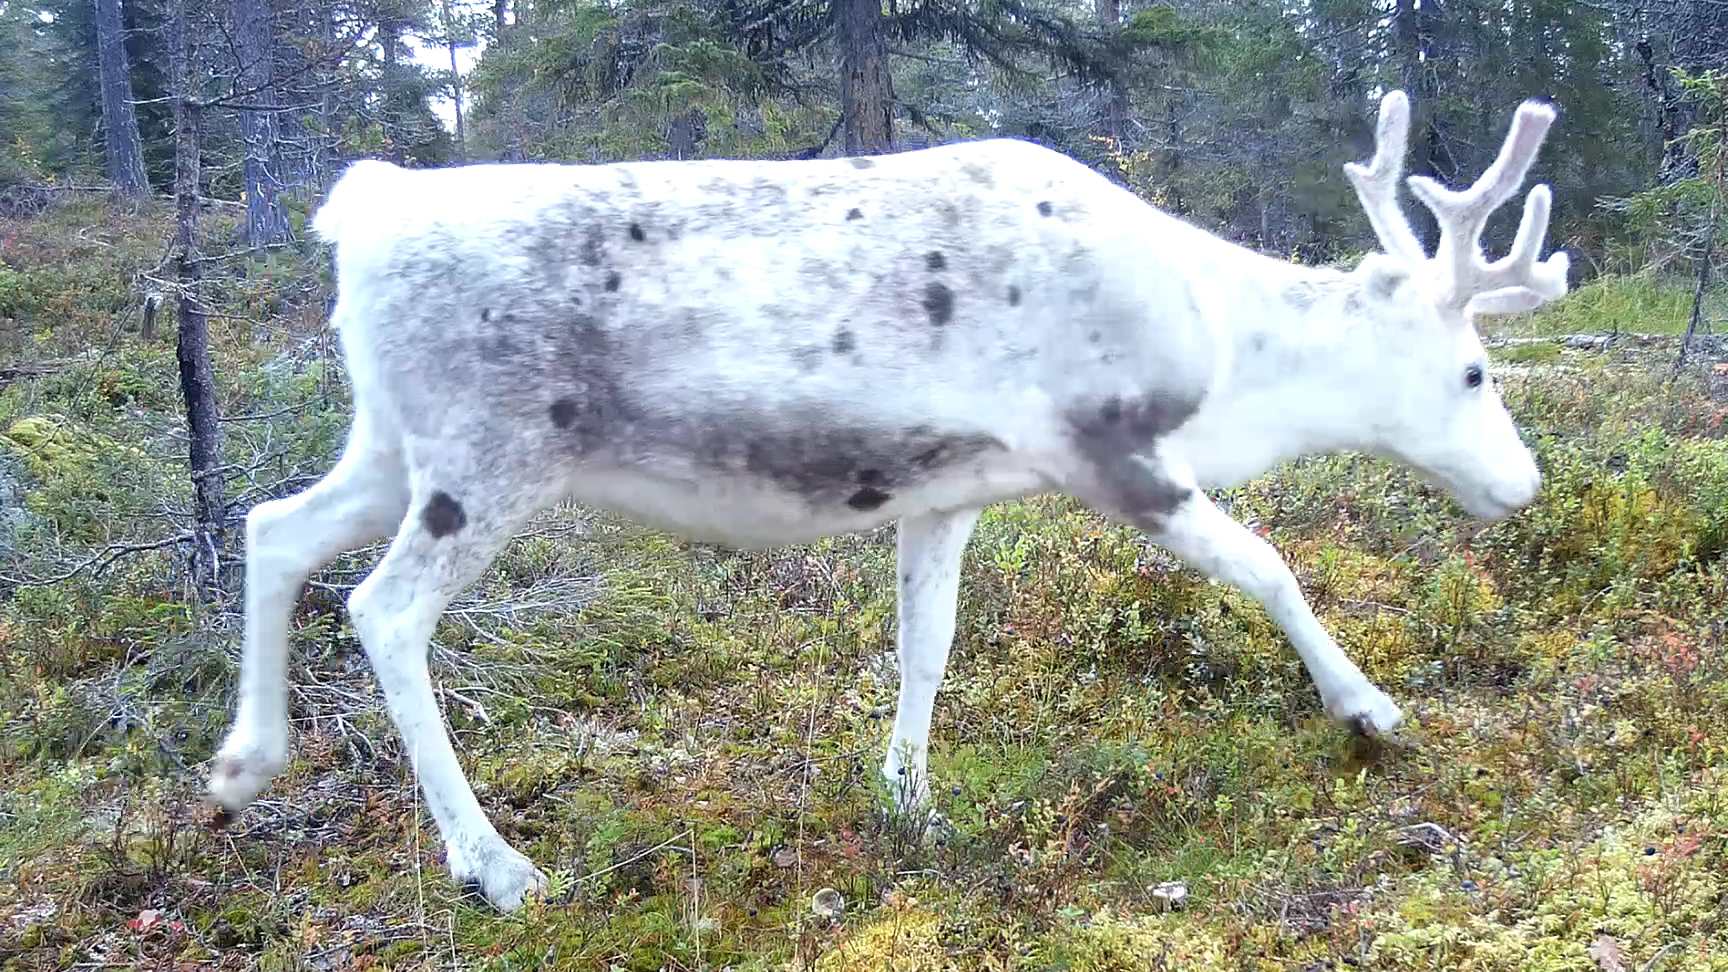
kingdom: Animalia
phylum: Chordata
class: Mammalia
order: Artiodactyla
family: Cervidae
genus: Rangifer
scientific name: Rangifer tarandus
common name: Reindeer
